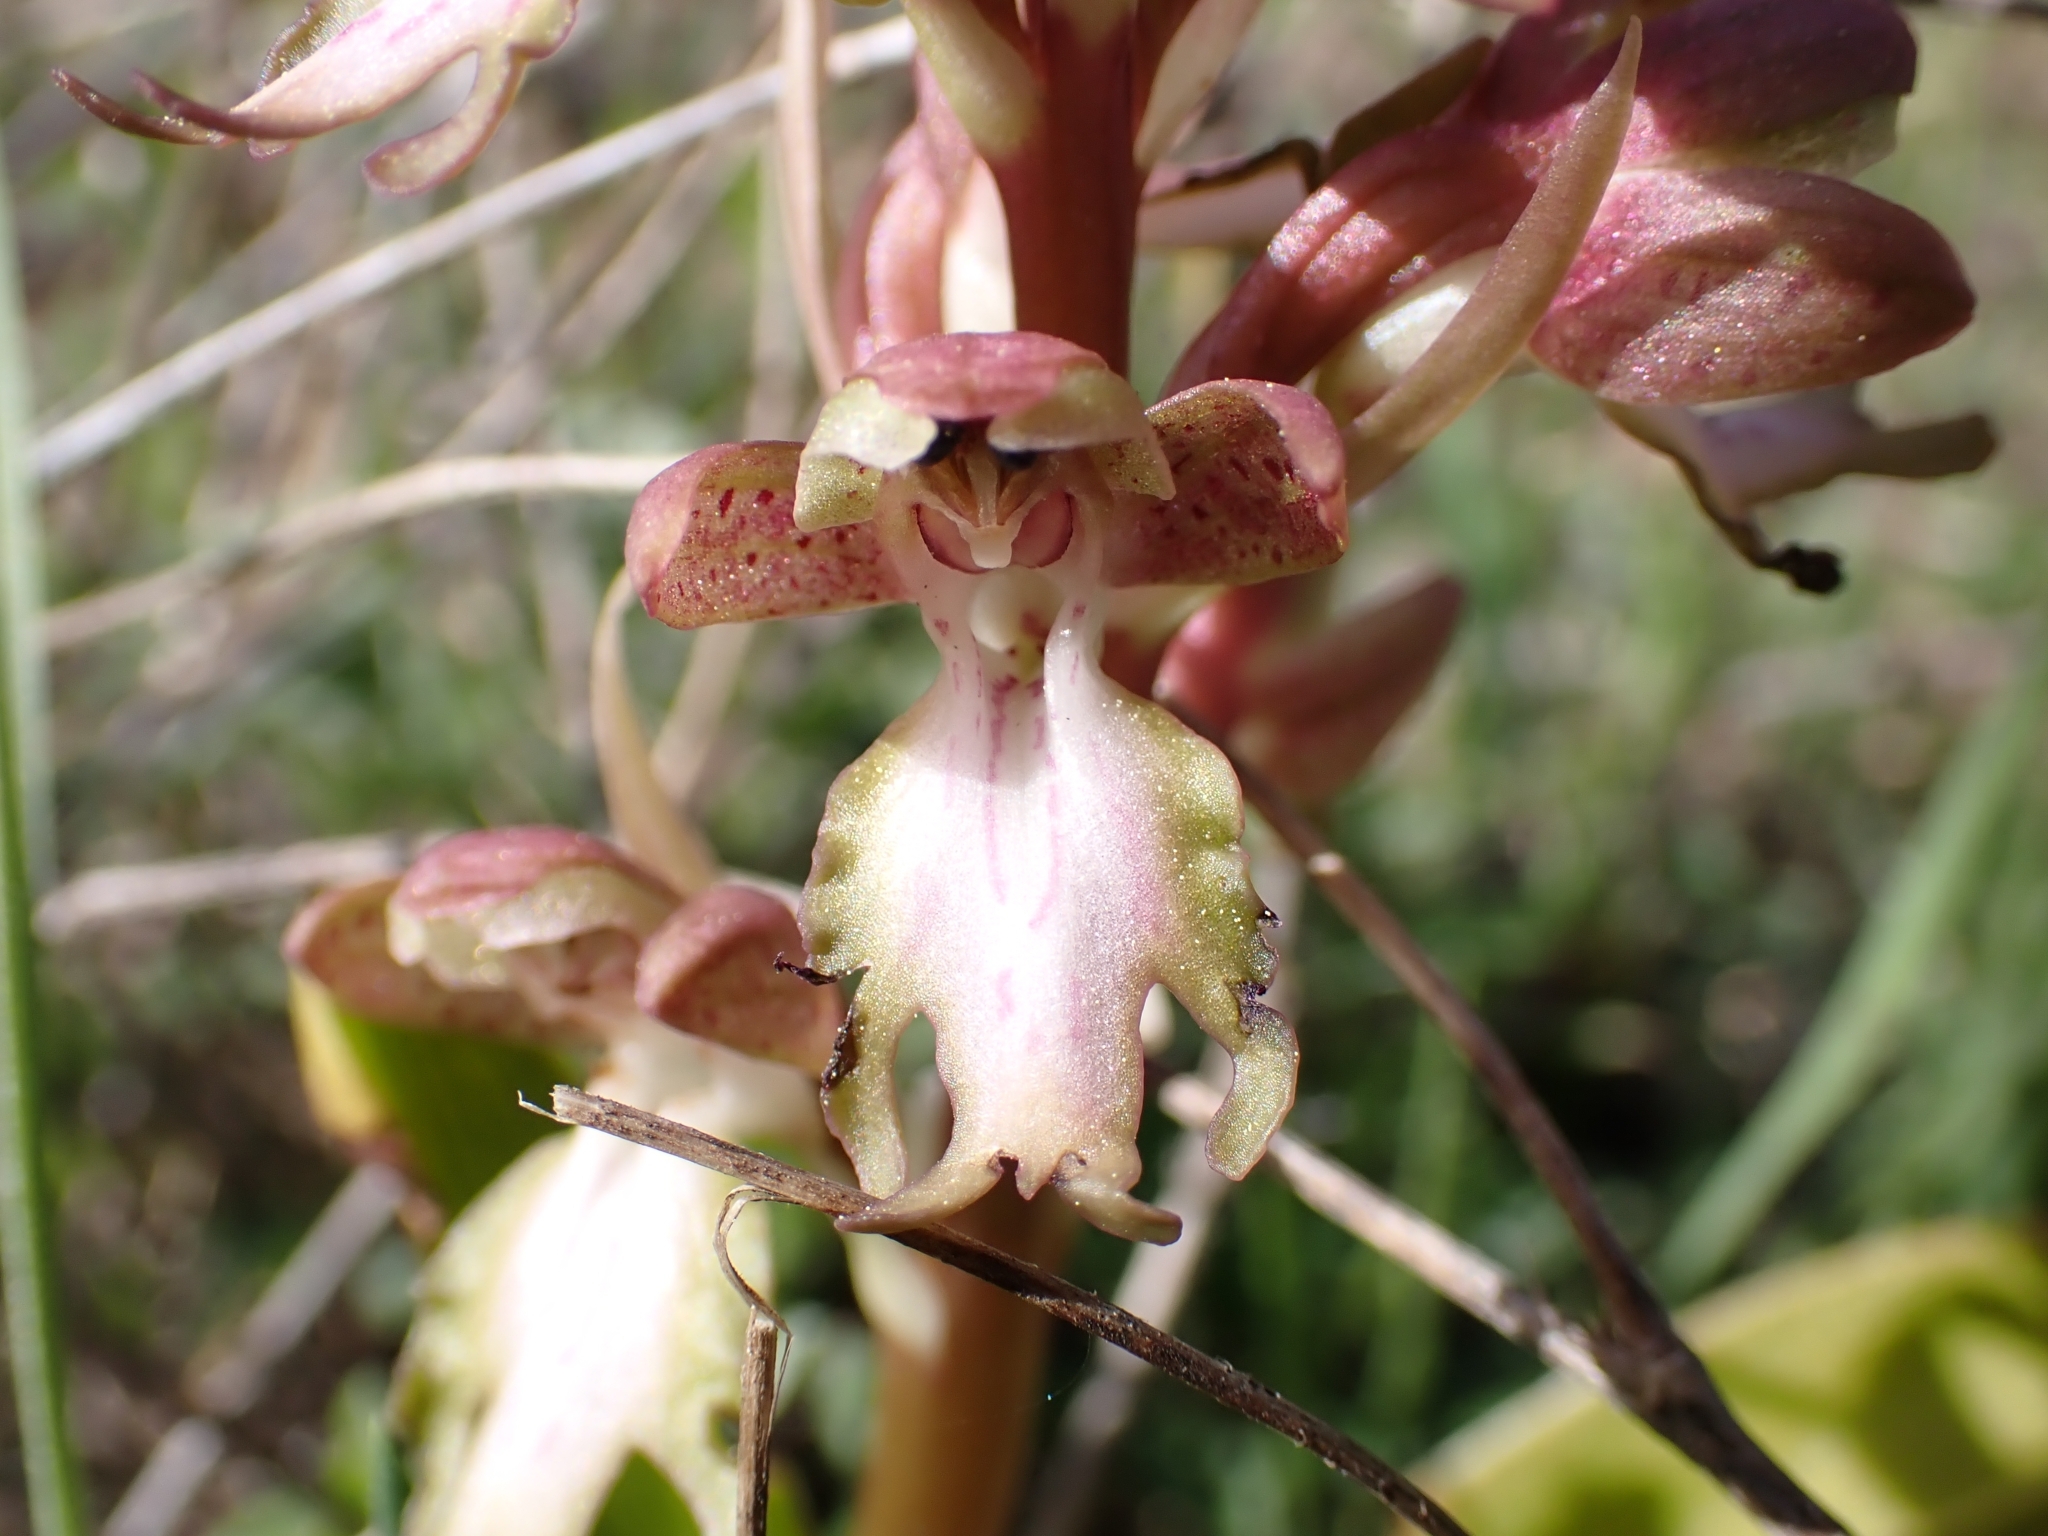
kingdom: Plantae
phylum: Tracheophyta
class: Liliopsida
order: Asparagales
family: Orchidaceae
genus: Himantoglossum
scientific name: Himantoglossum robertianum
